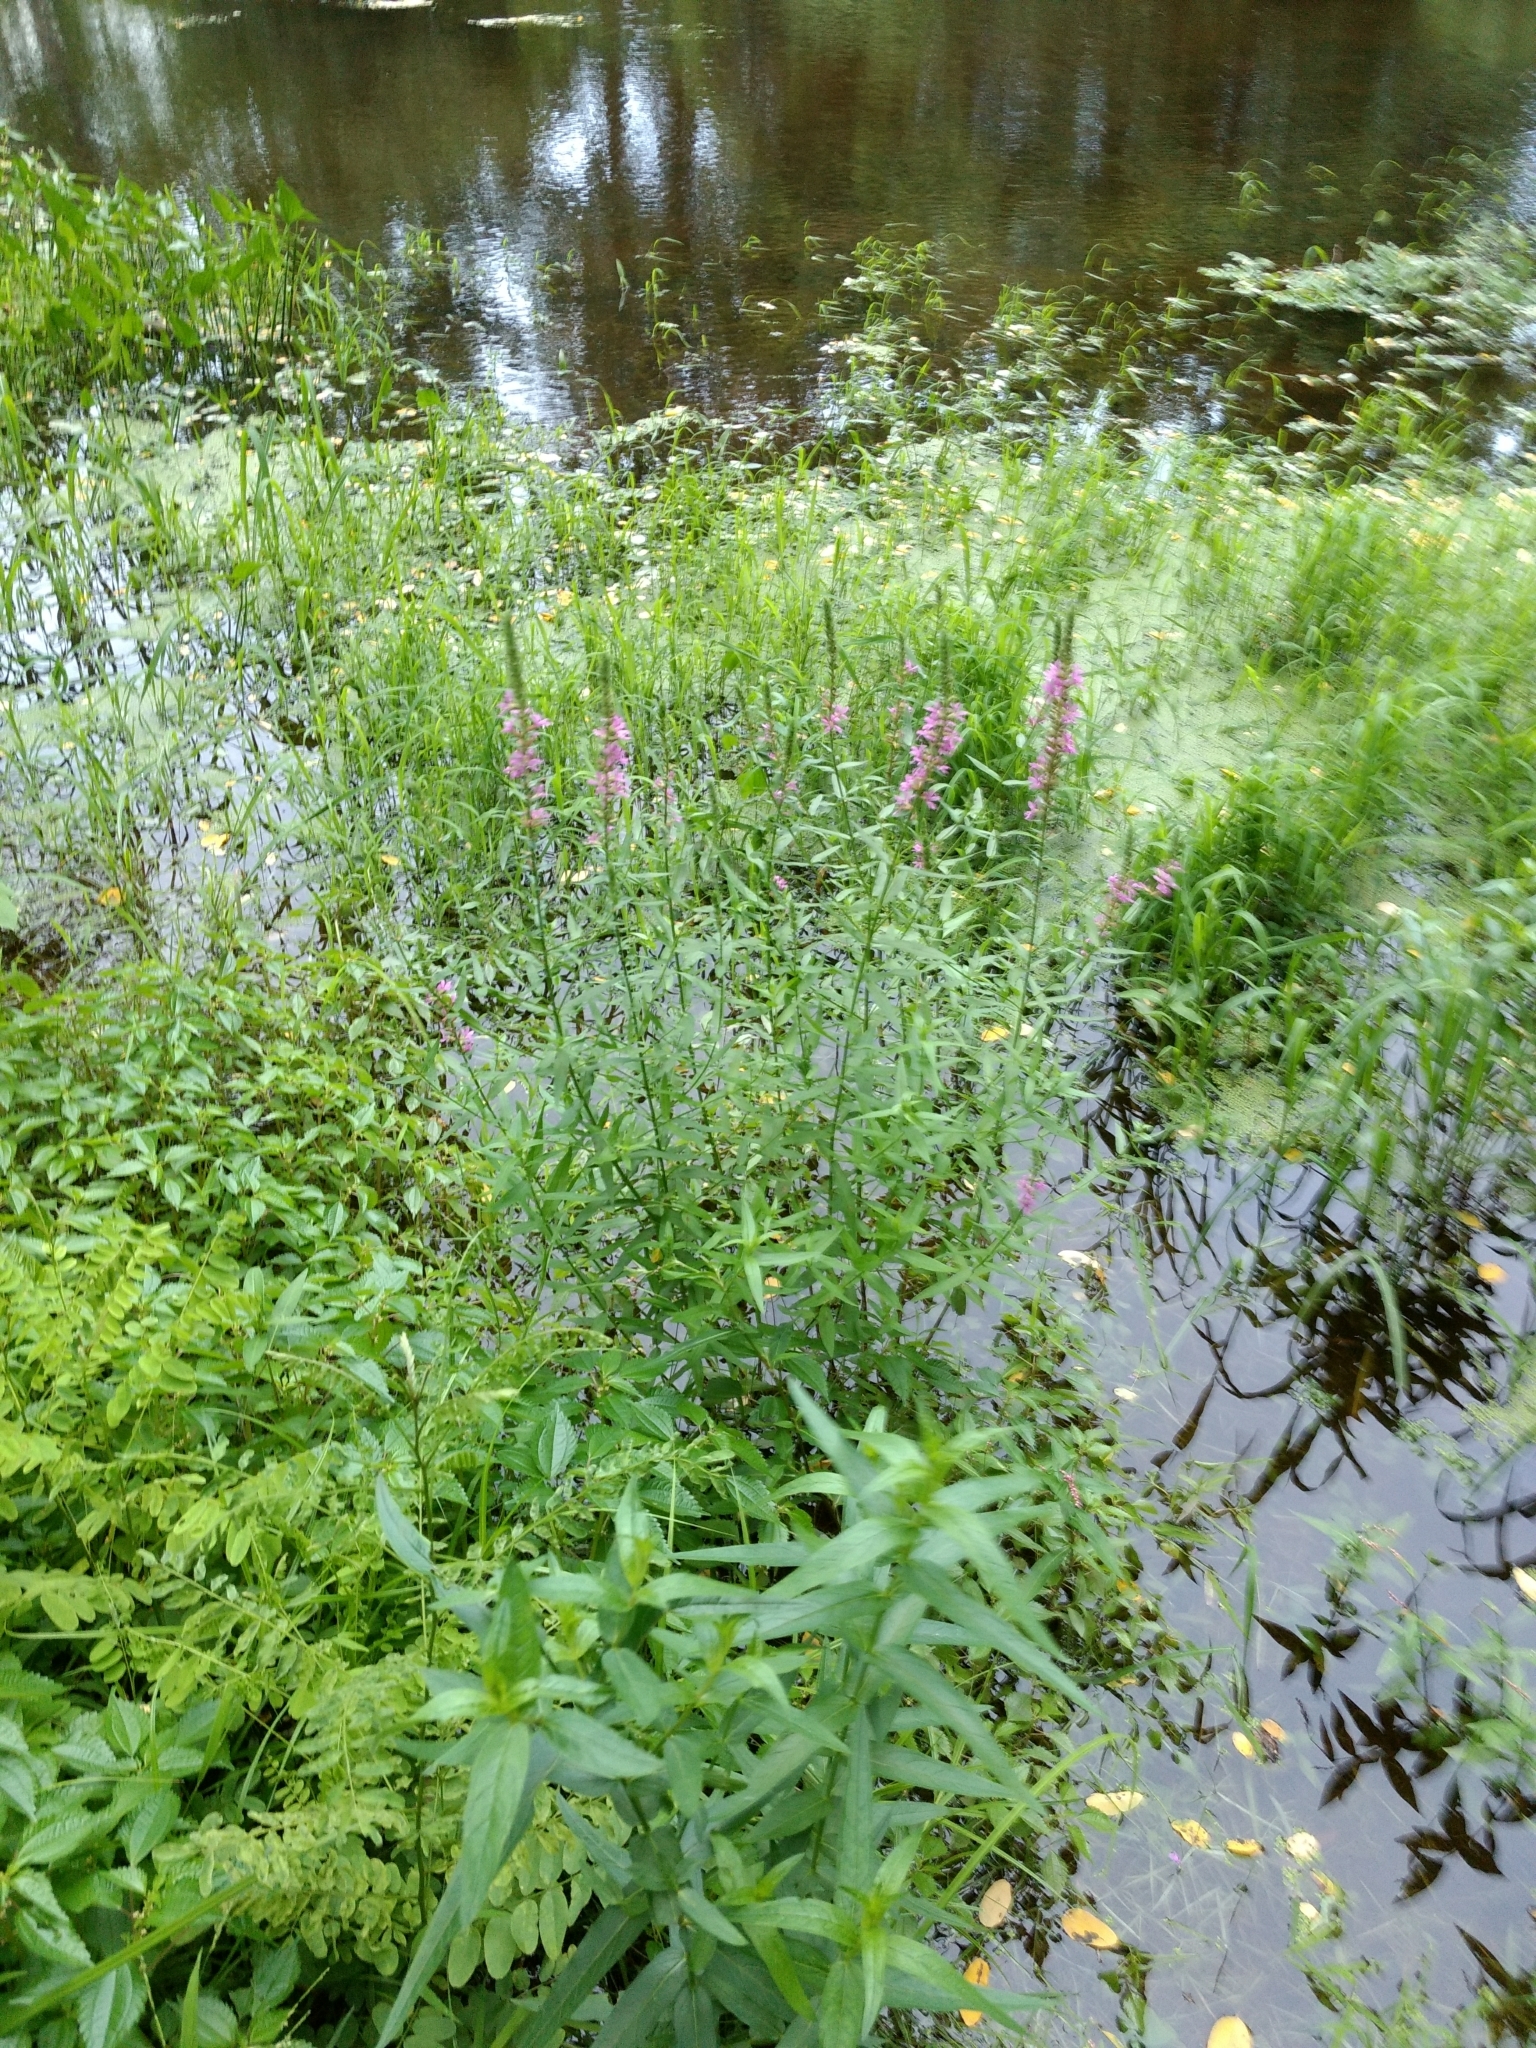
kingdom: Plantae
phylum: Tracheophyta
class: Magnoliopsida
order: Myrtales
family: Lythraceae
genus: Lythrum
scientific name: Lythrum salicaria
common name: Purple loosestrife
